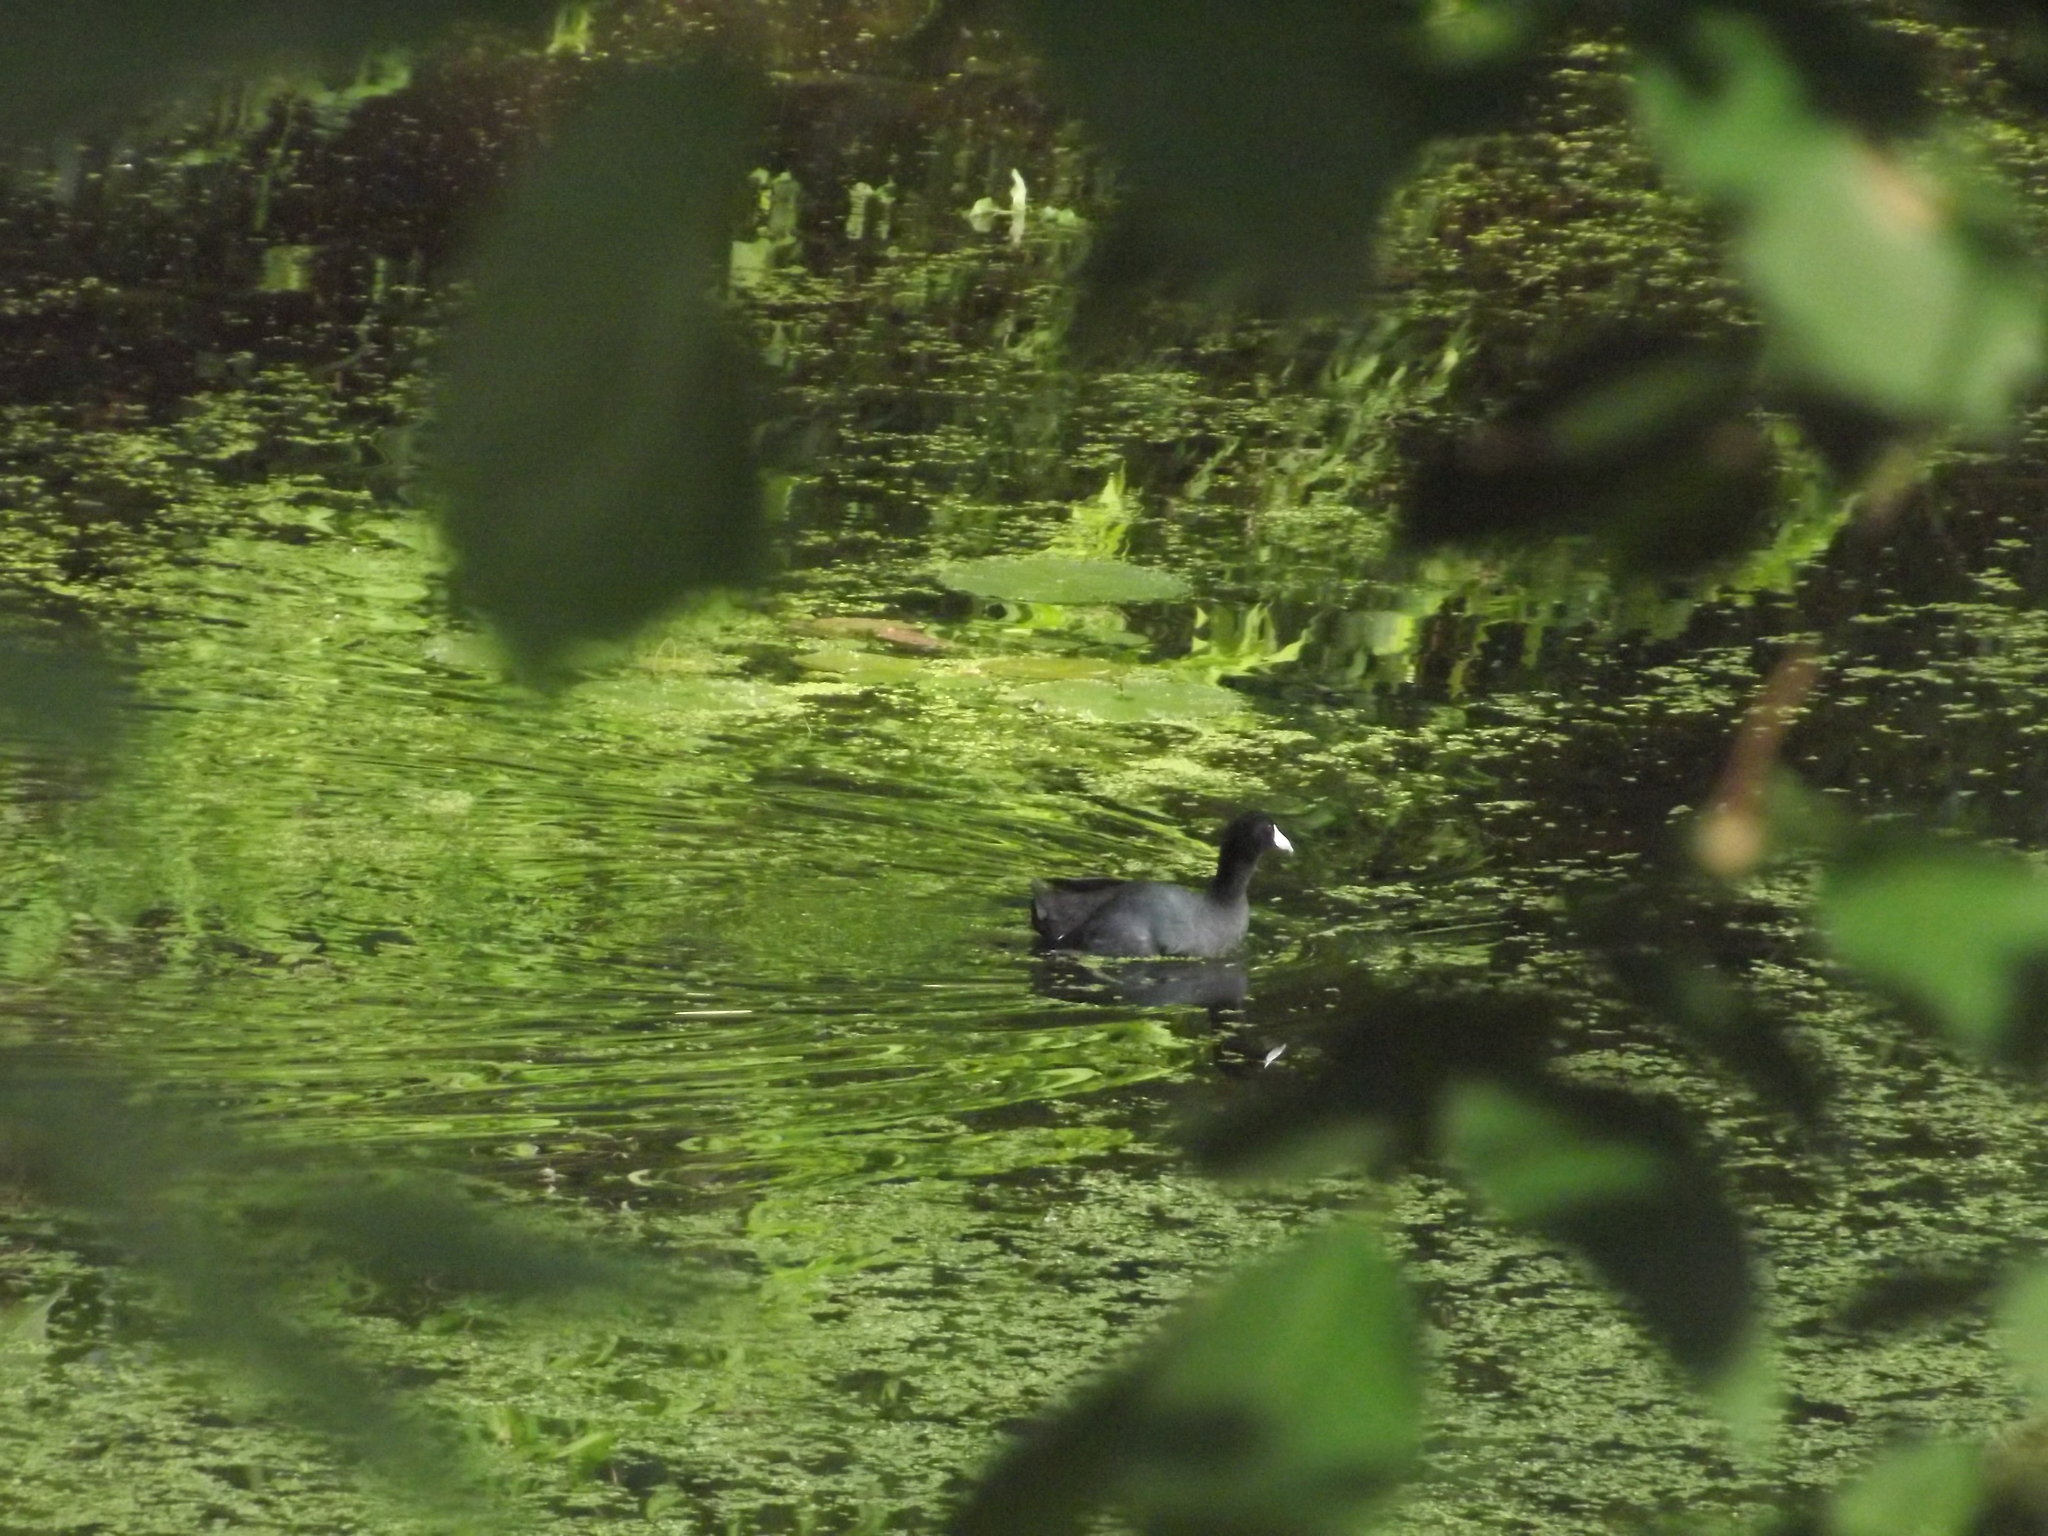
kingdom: Animalia
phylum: Chordata
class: Aves
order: Gruiformes
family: Rallidae
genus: Fulica
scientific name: Fulica americana
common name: American coot
